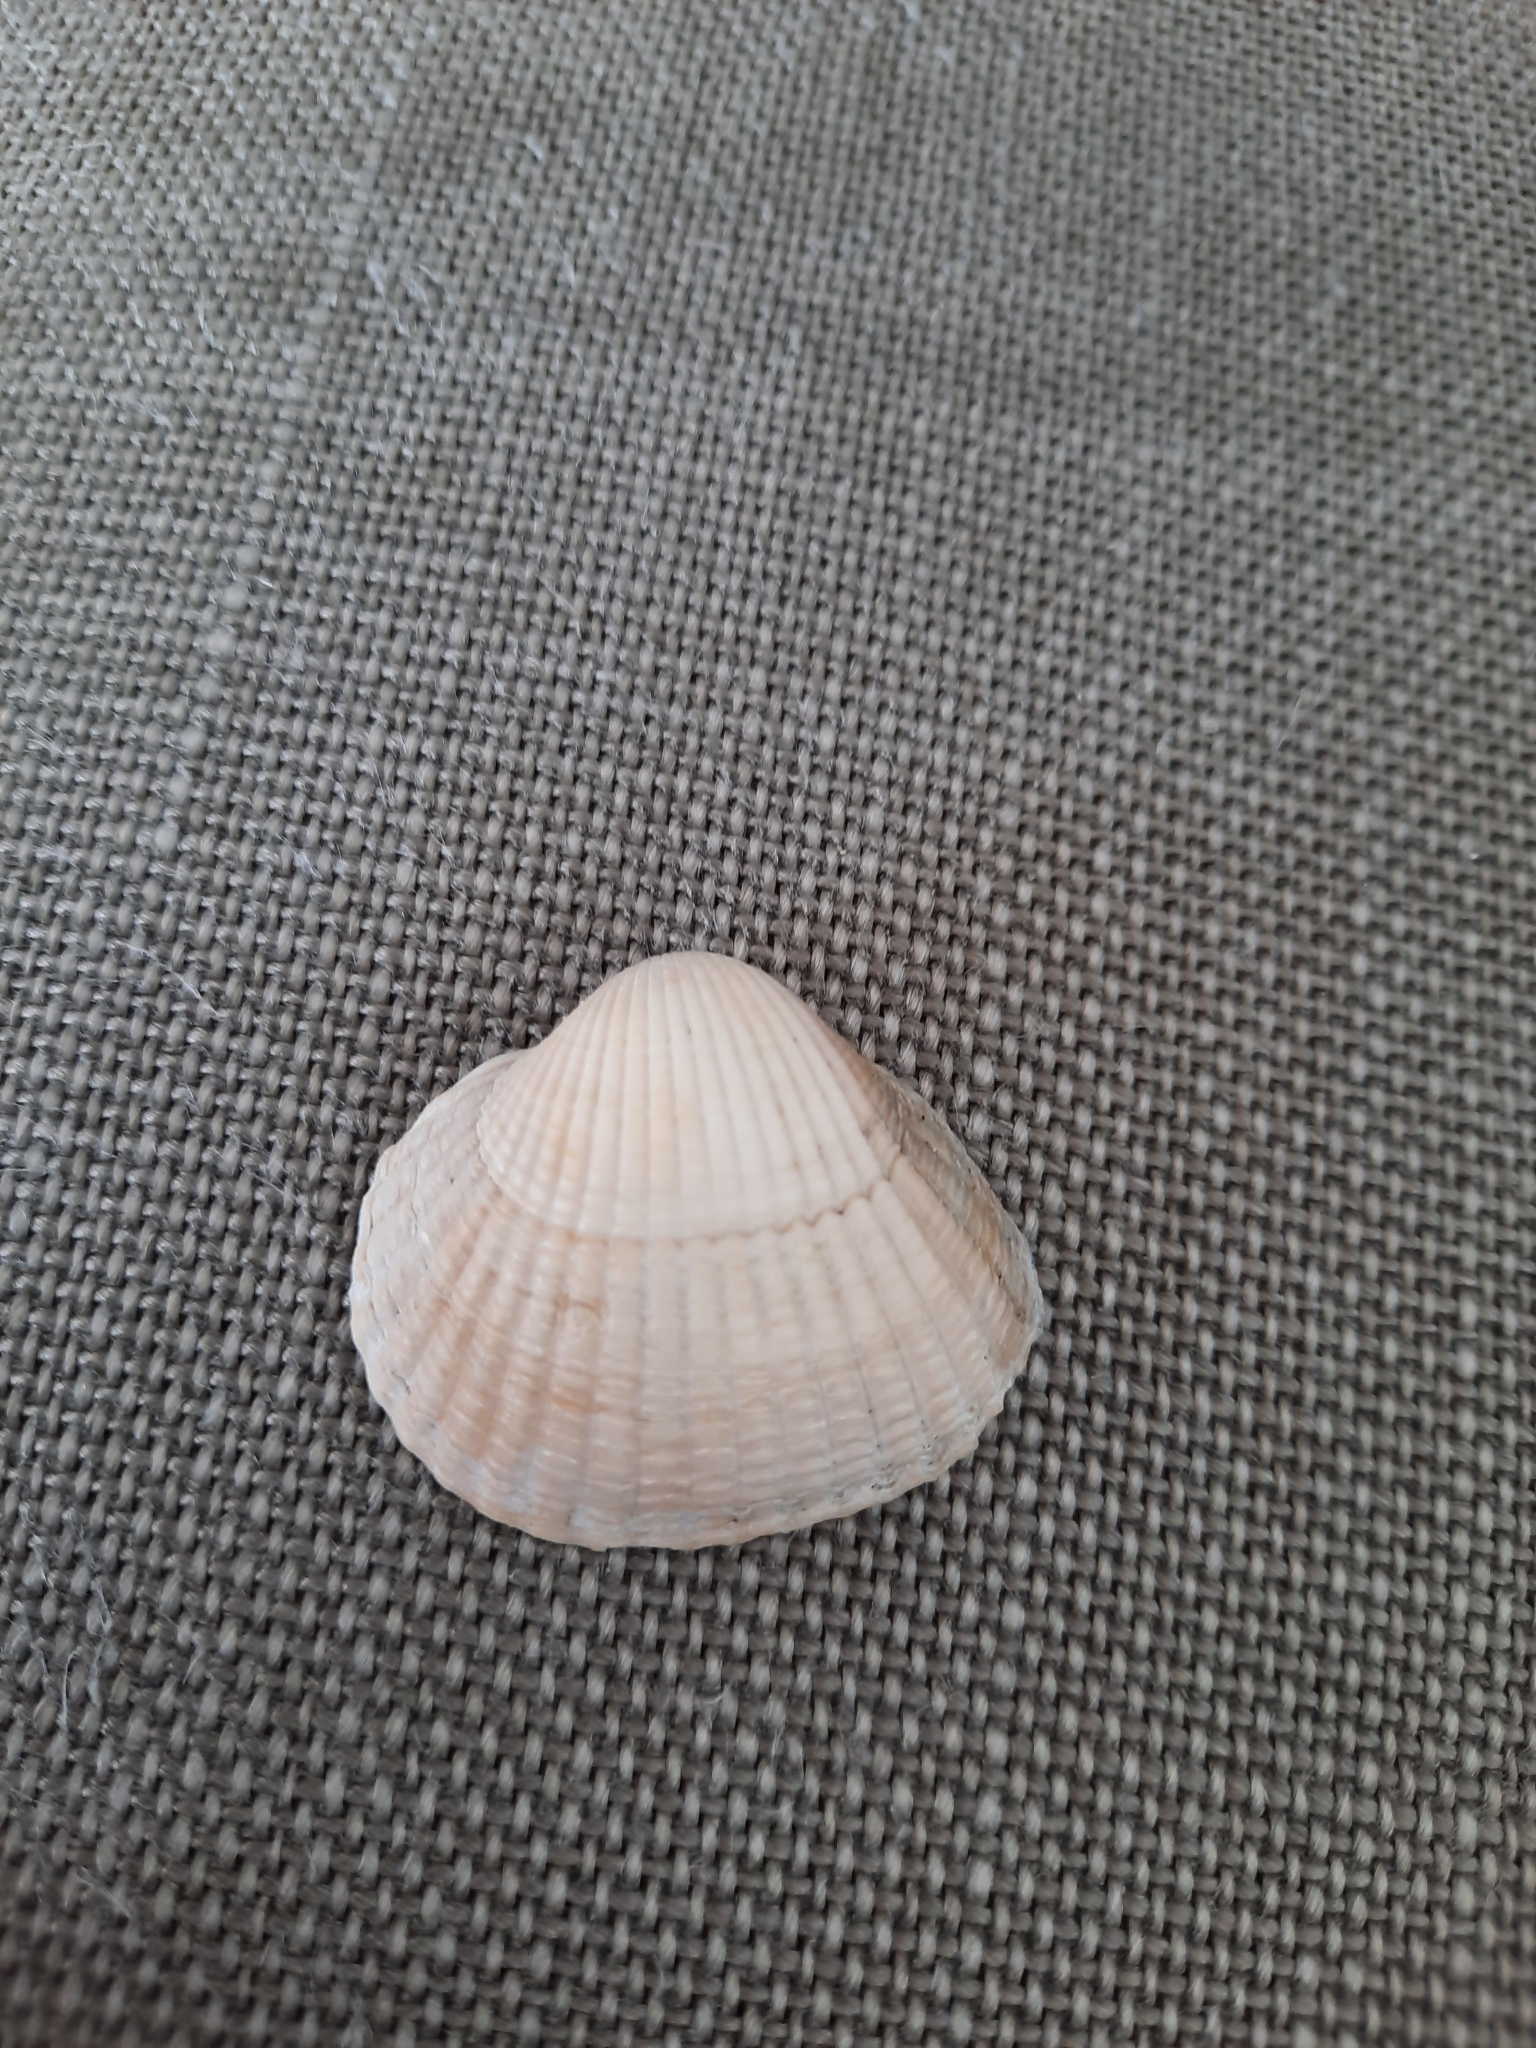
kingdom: Animalia
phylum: Mollusca
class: Bivalvia
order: Cardiida
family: Cardiidae
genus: Cerastoderma
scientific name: Cerastoderma edule
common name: Common cockle
